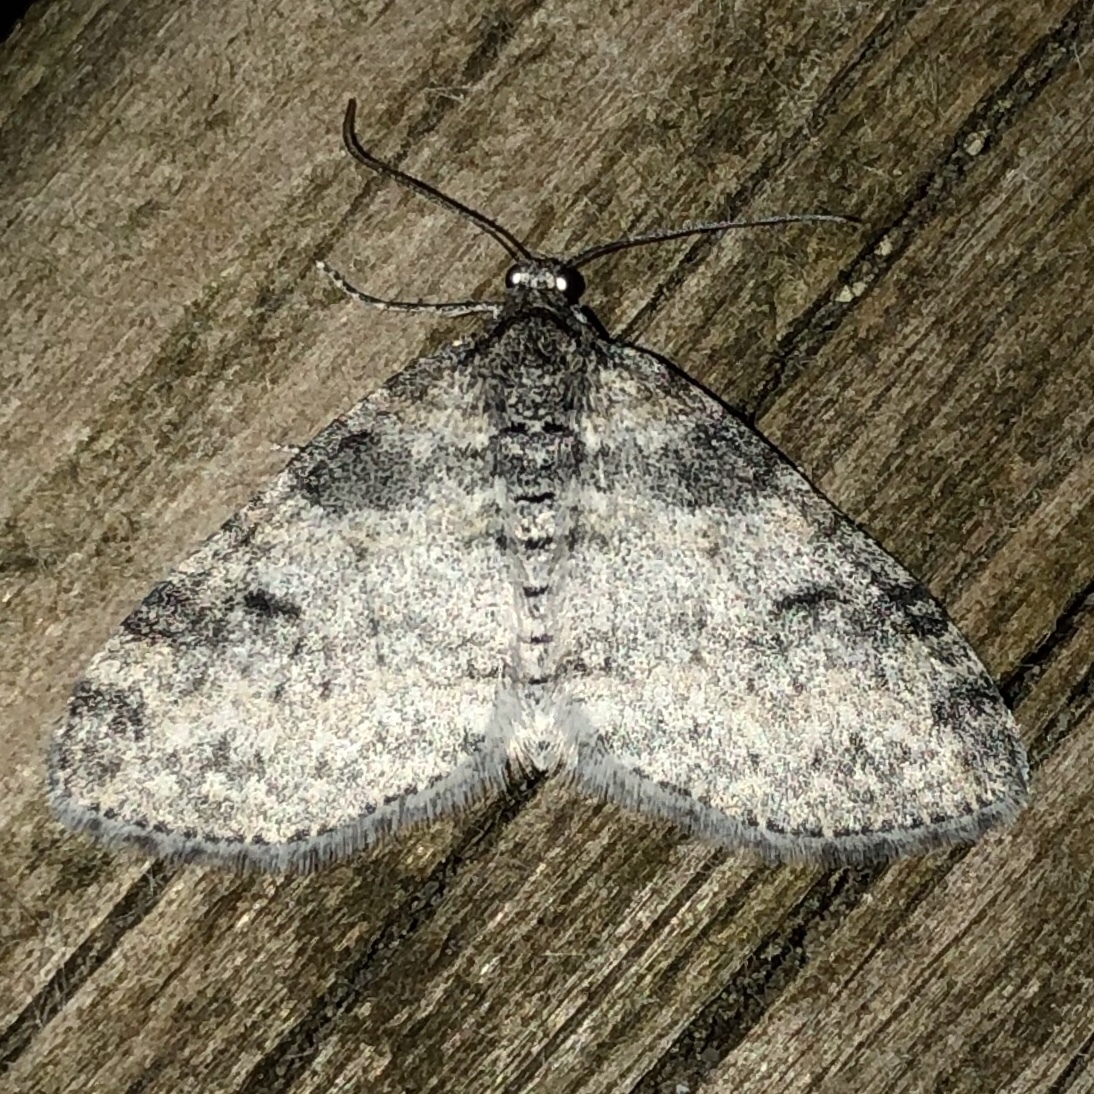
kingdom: Animalia
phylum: Arthropoda
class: Insecta
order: Lepidoptera
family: Geometridae
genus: Lobophora
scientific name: Lobophora nivigerata
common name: Powdered bigwing
